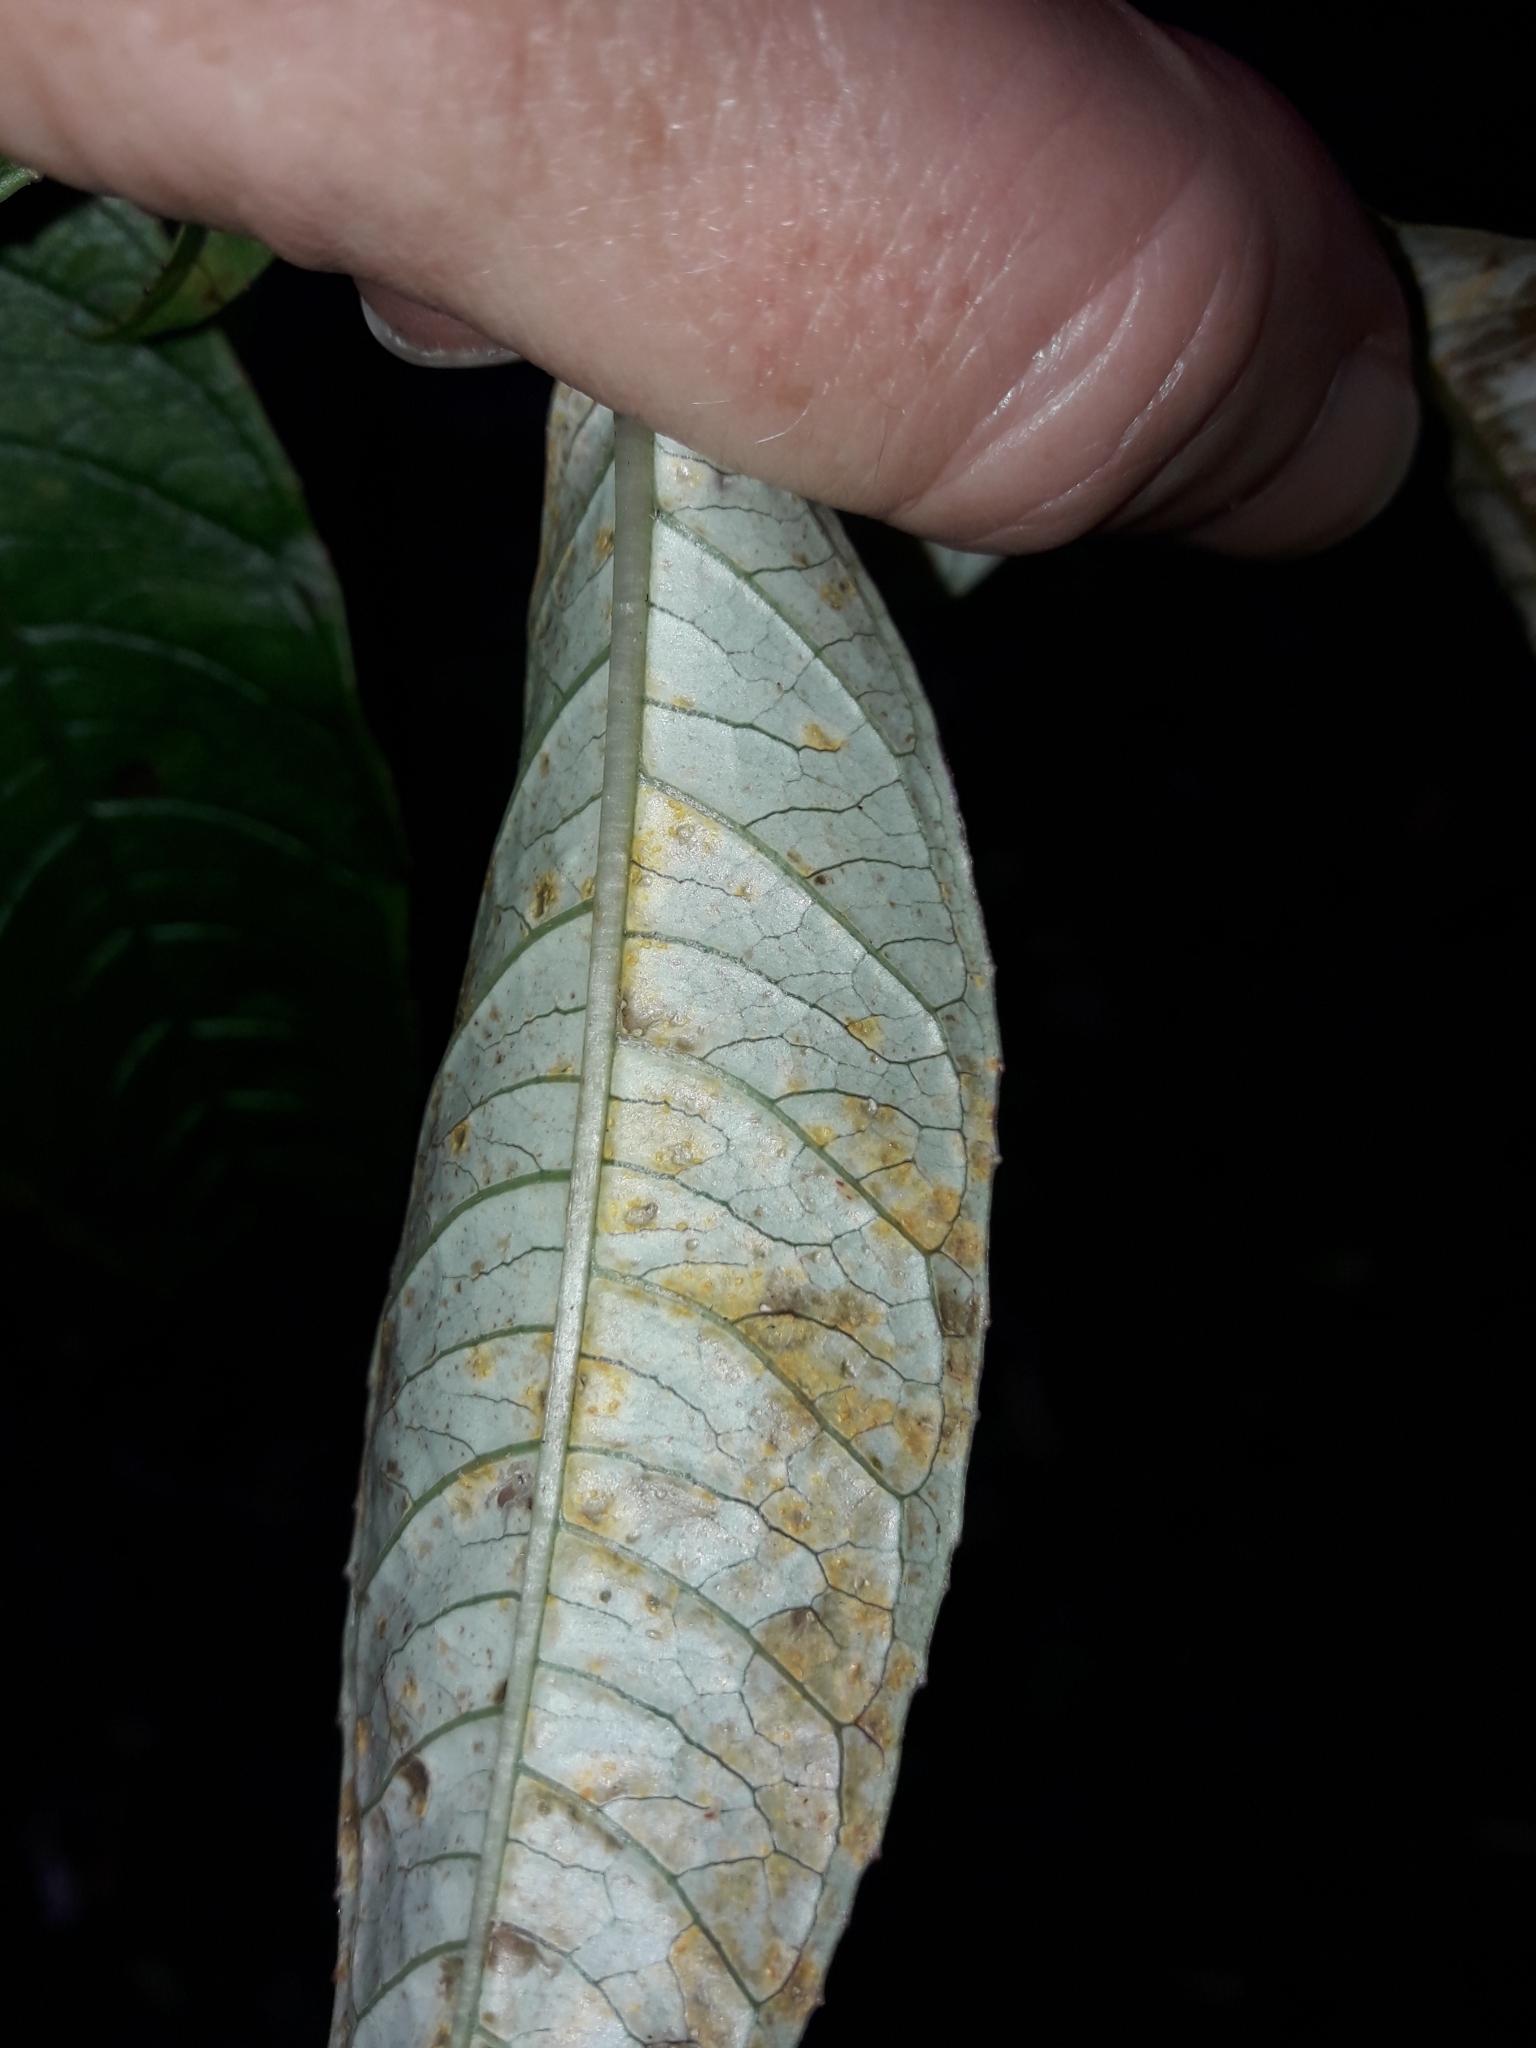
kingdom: Fungi
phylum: Basidiomycota
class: Pucciniomycetes
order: Pucciniales
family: Mikronegeriaceae
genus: Mikronegeria
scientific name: Mikronegeria fuchsiae
